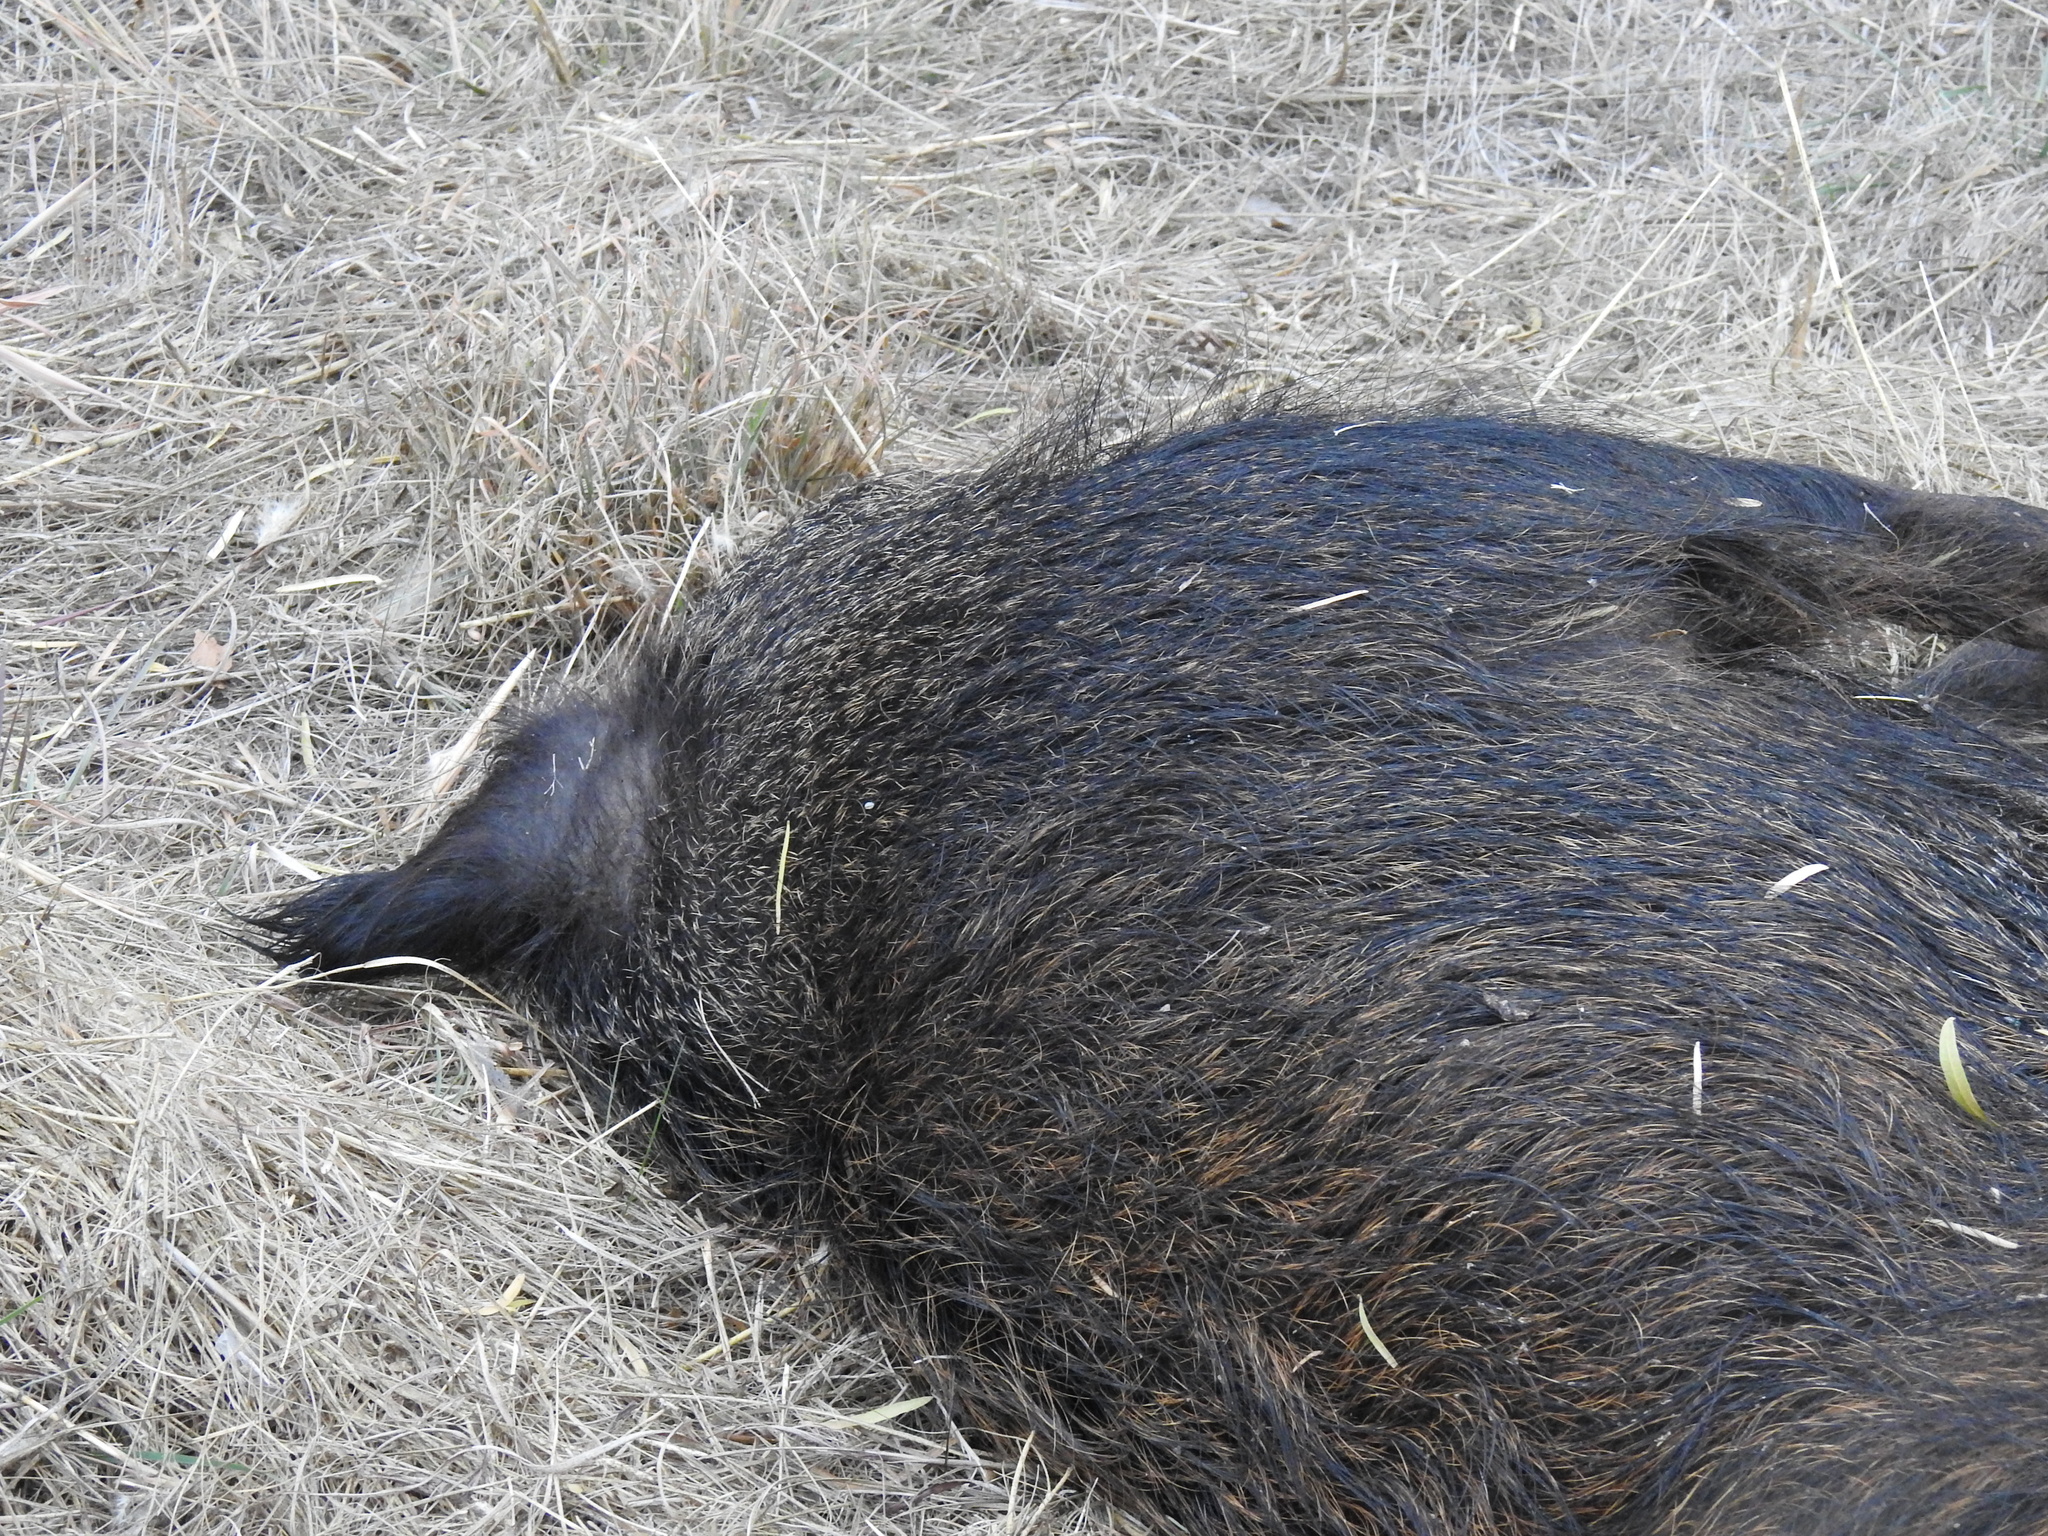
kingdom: Animalia
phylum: Chordata
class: Mammalia
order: Artiodactyla
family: Suidae
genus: Sus
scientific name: Sus scrofa
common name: Wild boar
